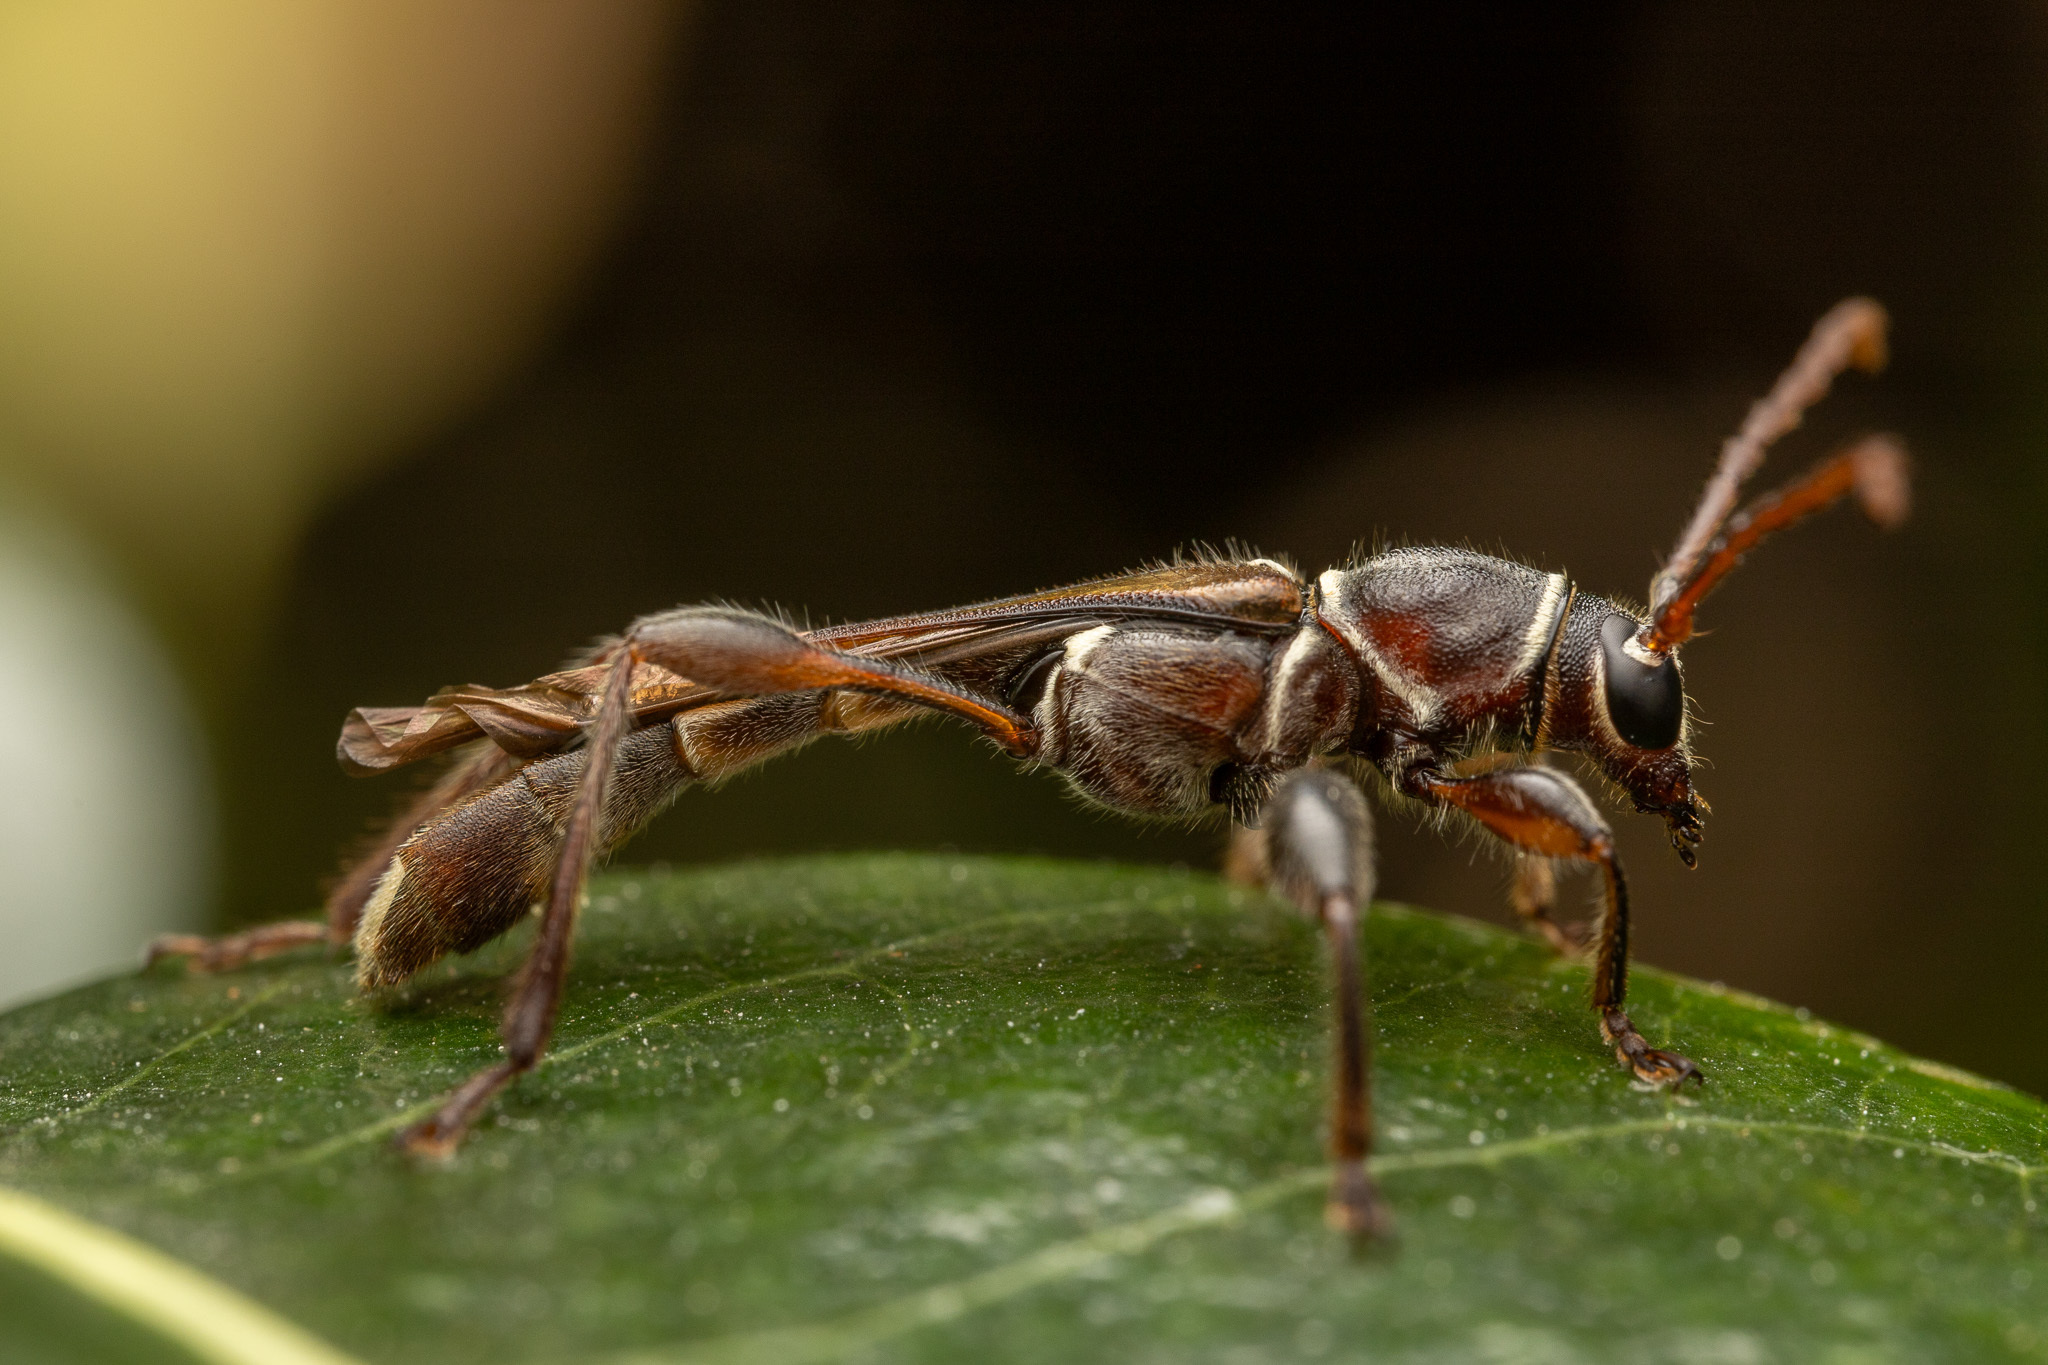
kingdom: Animalia
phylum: Arthropoda
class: Insecta
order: Coleoptera
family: Cerambycidae
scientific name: Cerambycidae
